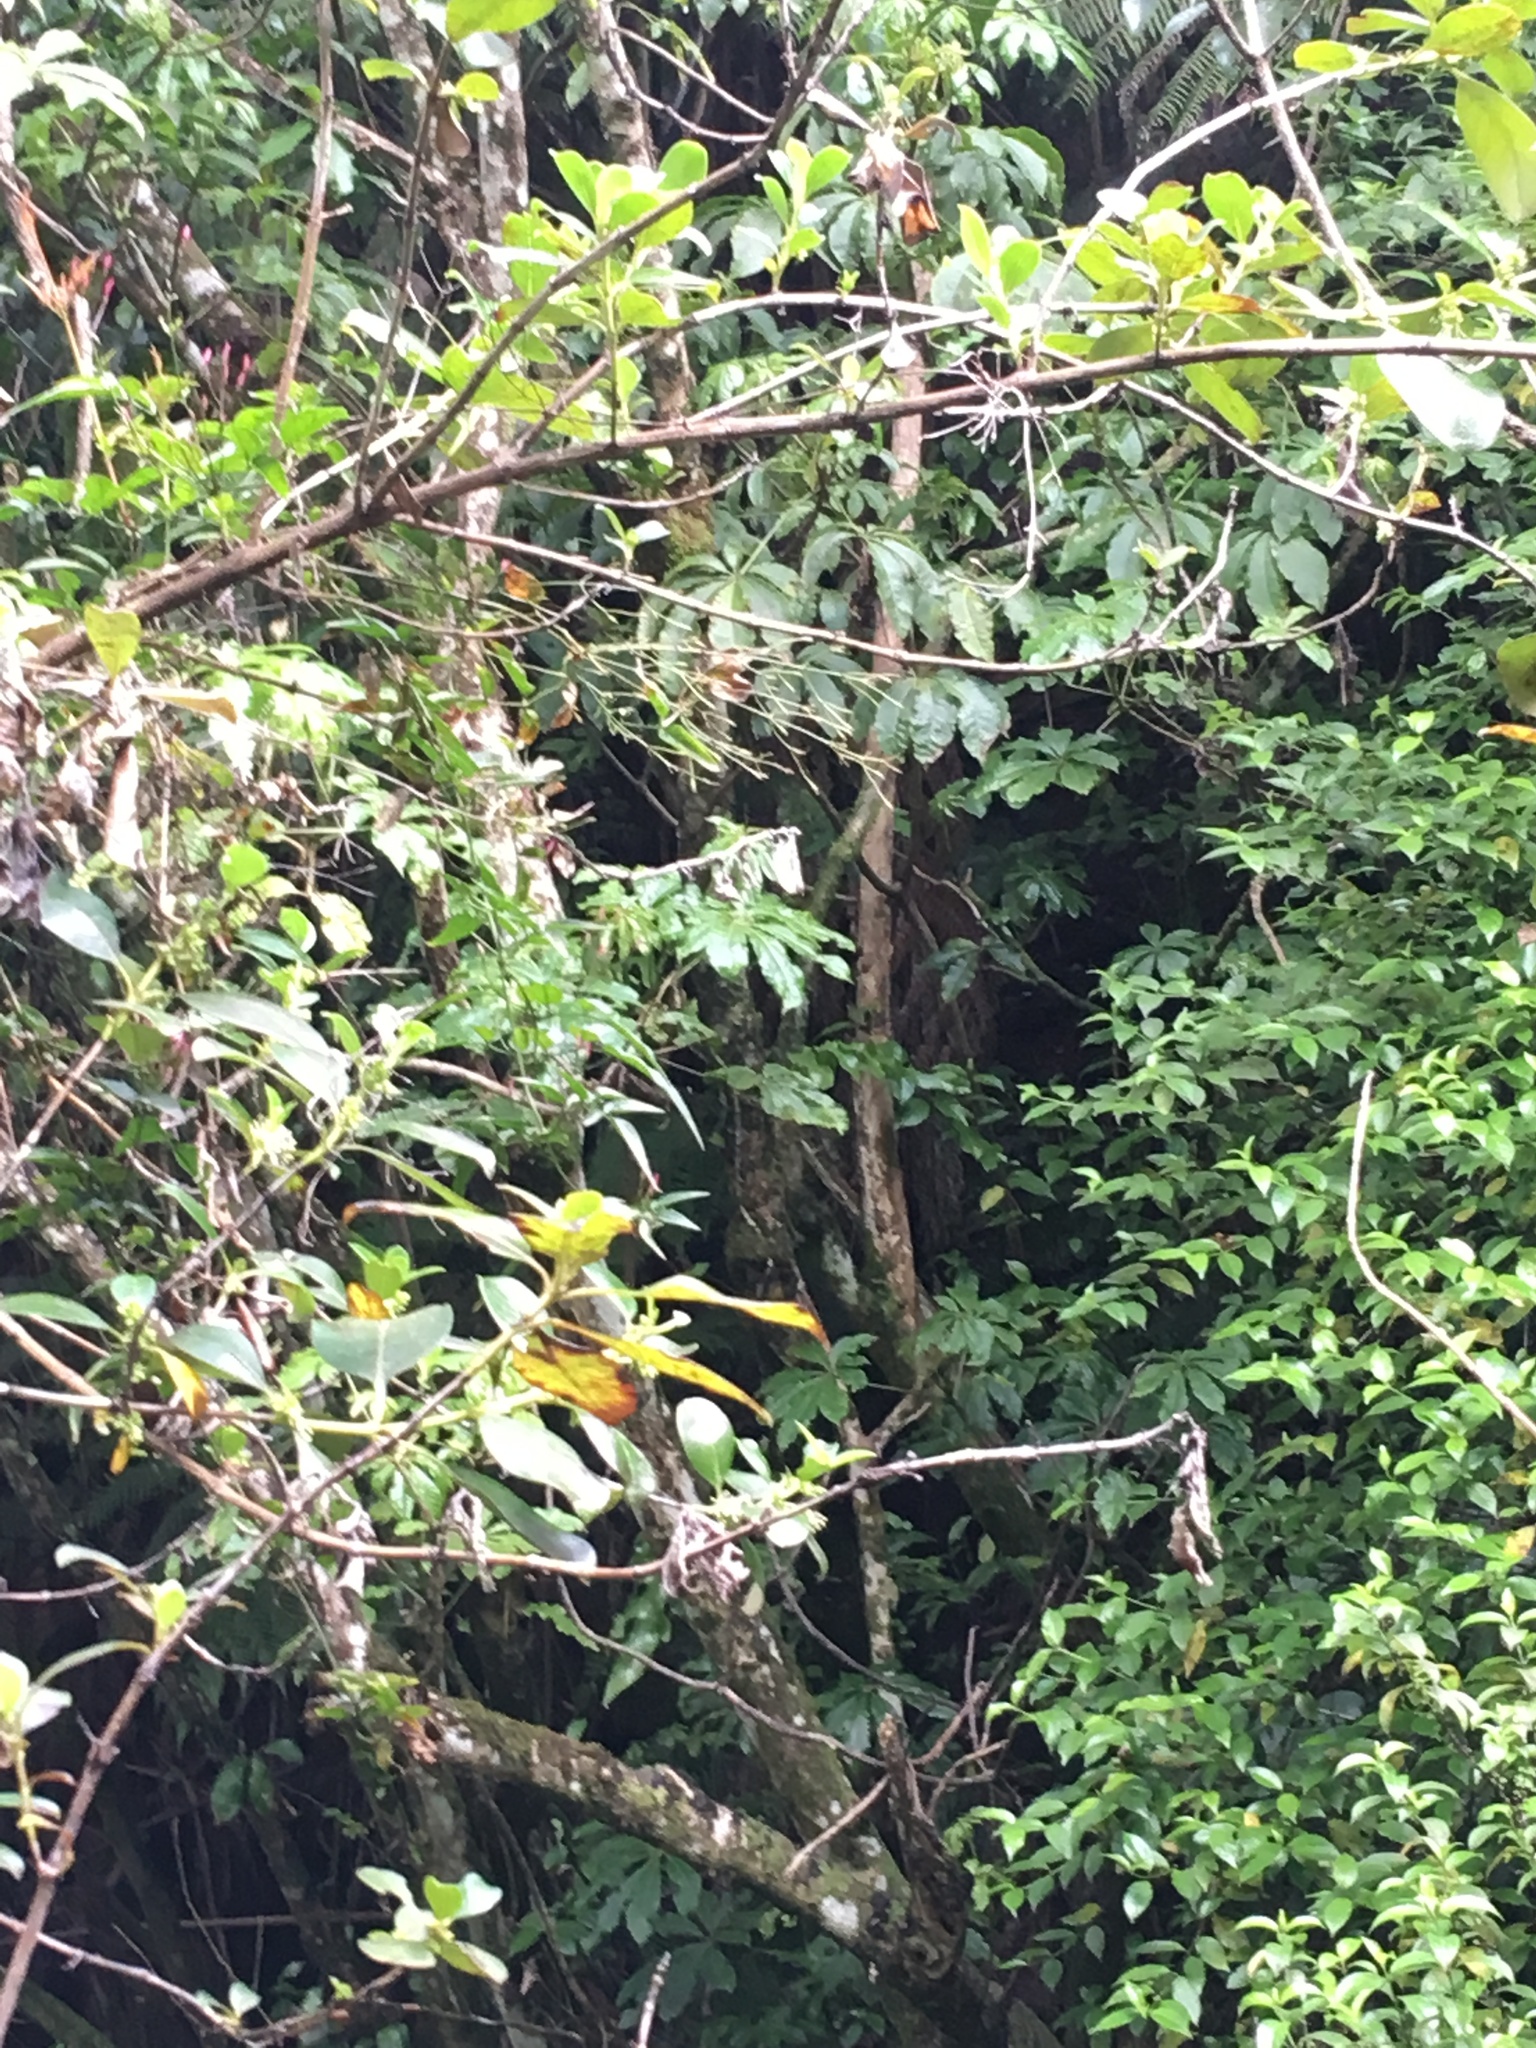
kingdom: Plantae
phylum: Tracheophyta
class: Magnoliopsida
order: Gentianales
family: Loganiaceae
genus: Geniostoma
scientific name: Geniostoma ligustrifolium
